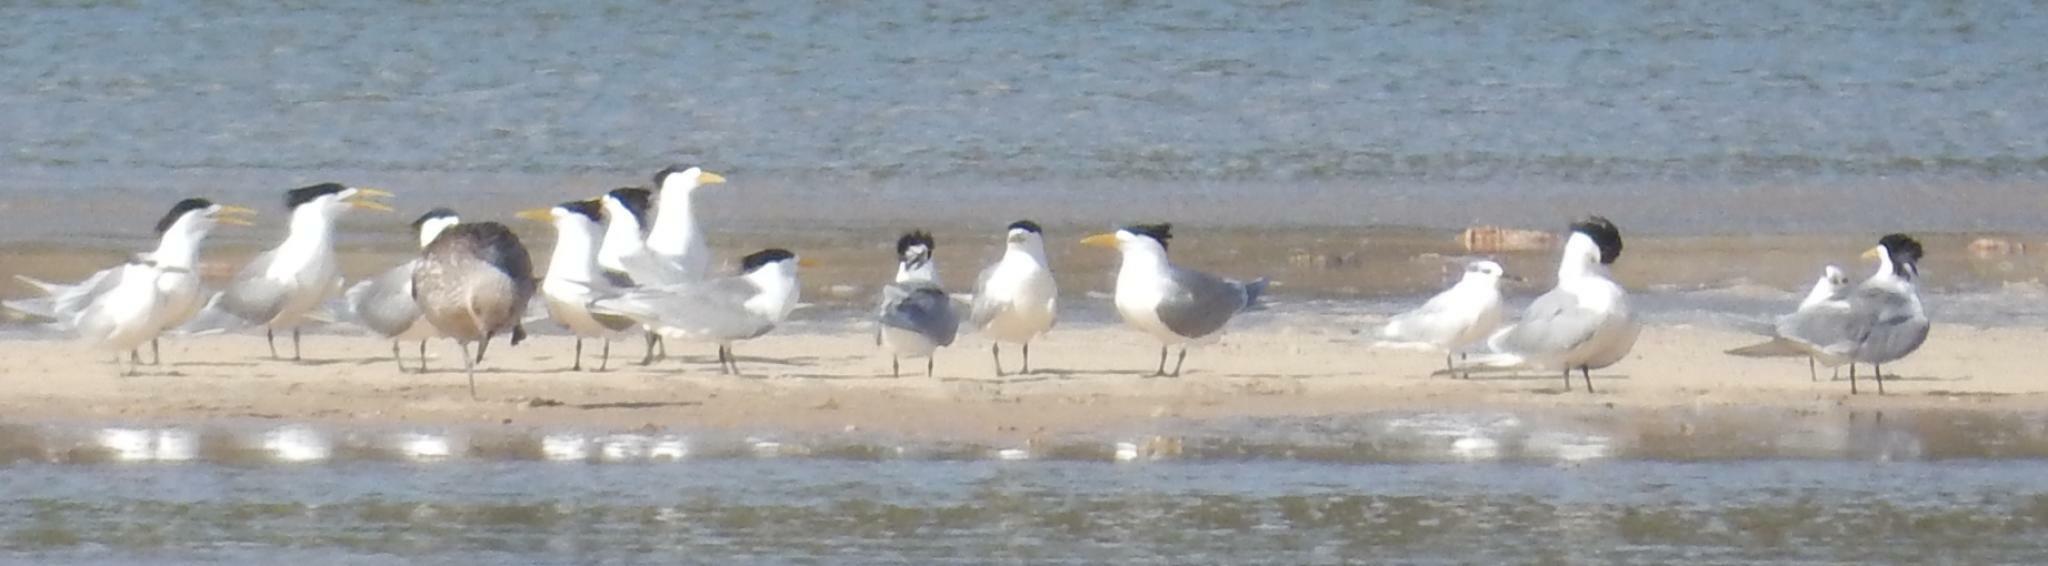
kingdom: Animalia
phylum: Chordata
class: Aves
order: Charadriiformes
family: Laridae
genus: Thalasseus
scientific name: Thalasseus bergii
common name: Greater crested tern
